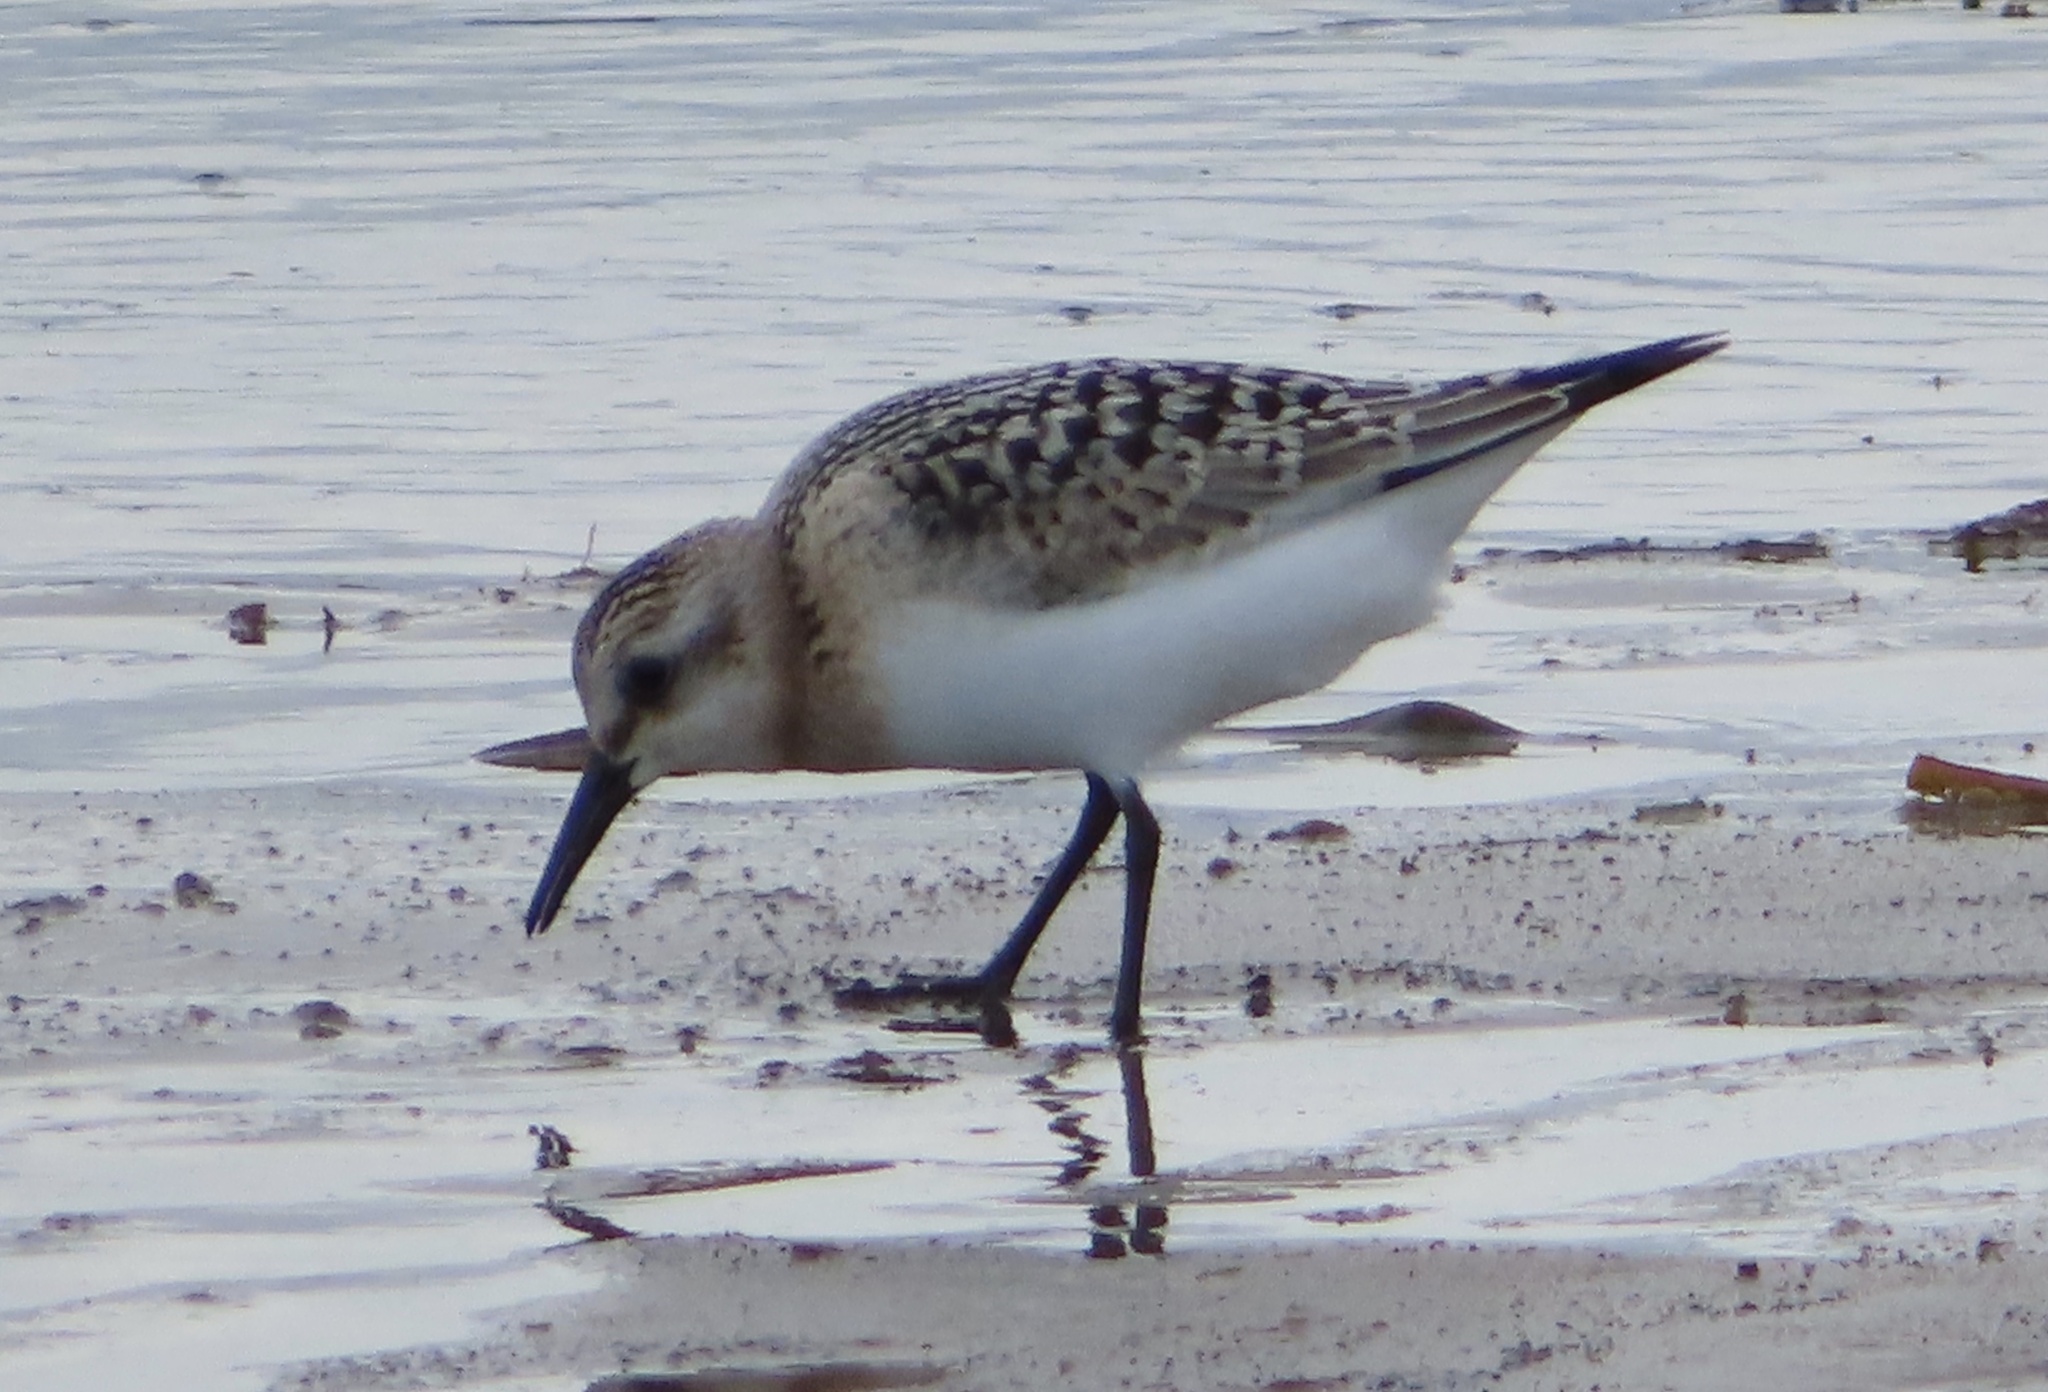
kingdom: Animalia
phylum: Chordata
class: Aves
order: Charadriiformes
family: Scolopacidae
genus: Calidris
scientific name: Calidris alba
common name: Sanderling
